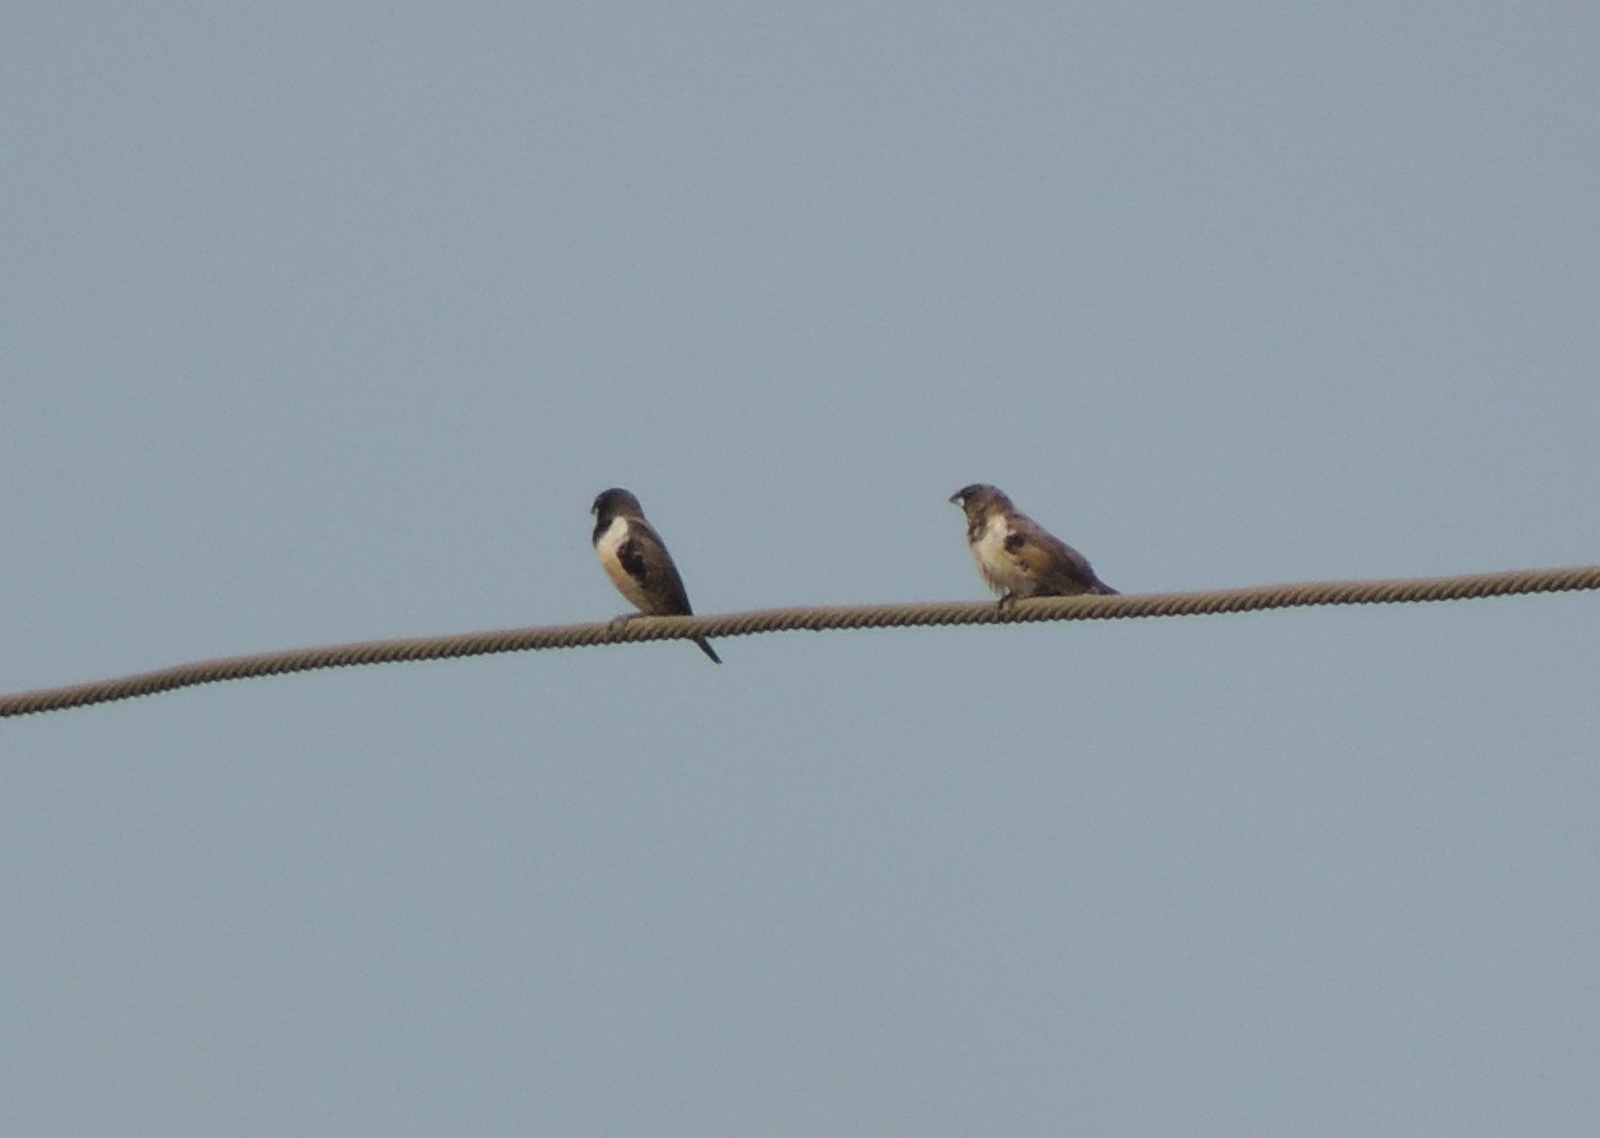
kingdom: Animalia
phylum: Chordata
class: Aves
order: Passeriformes
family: Estrildidae
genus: Lonchura
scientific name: Lonchura cucullata
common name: Bronze mannikin
